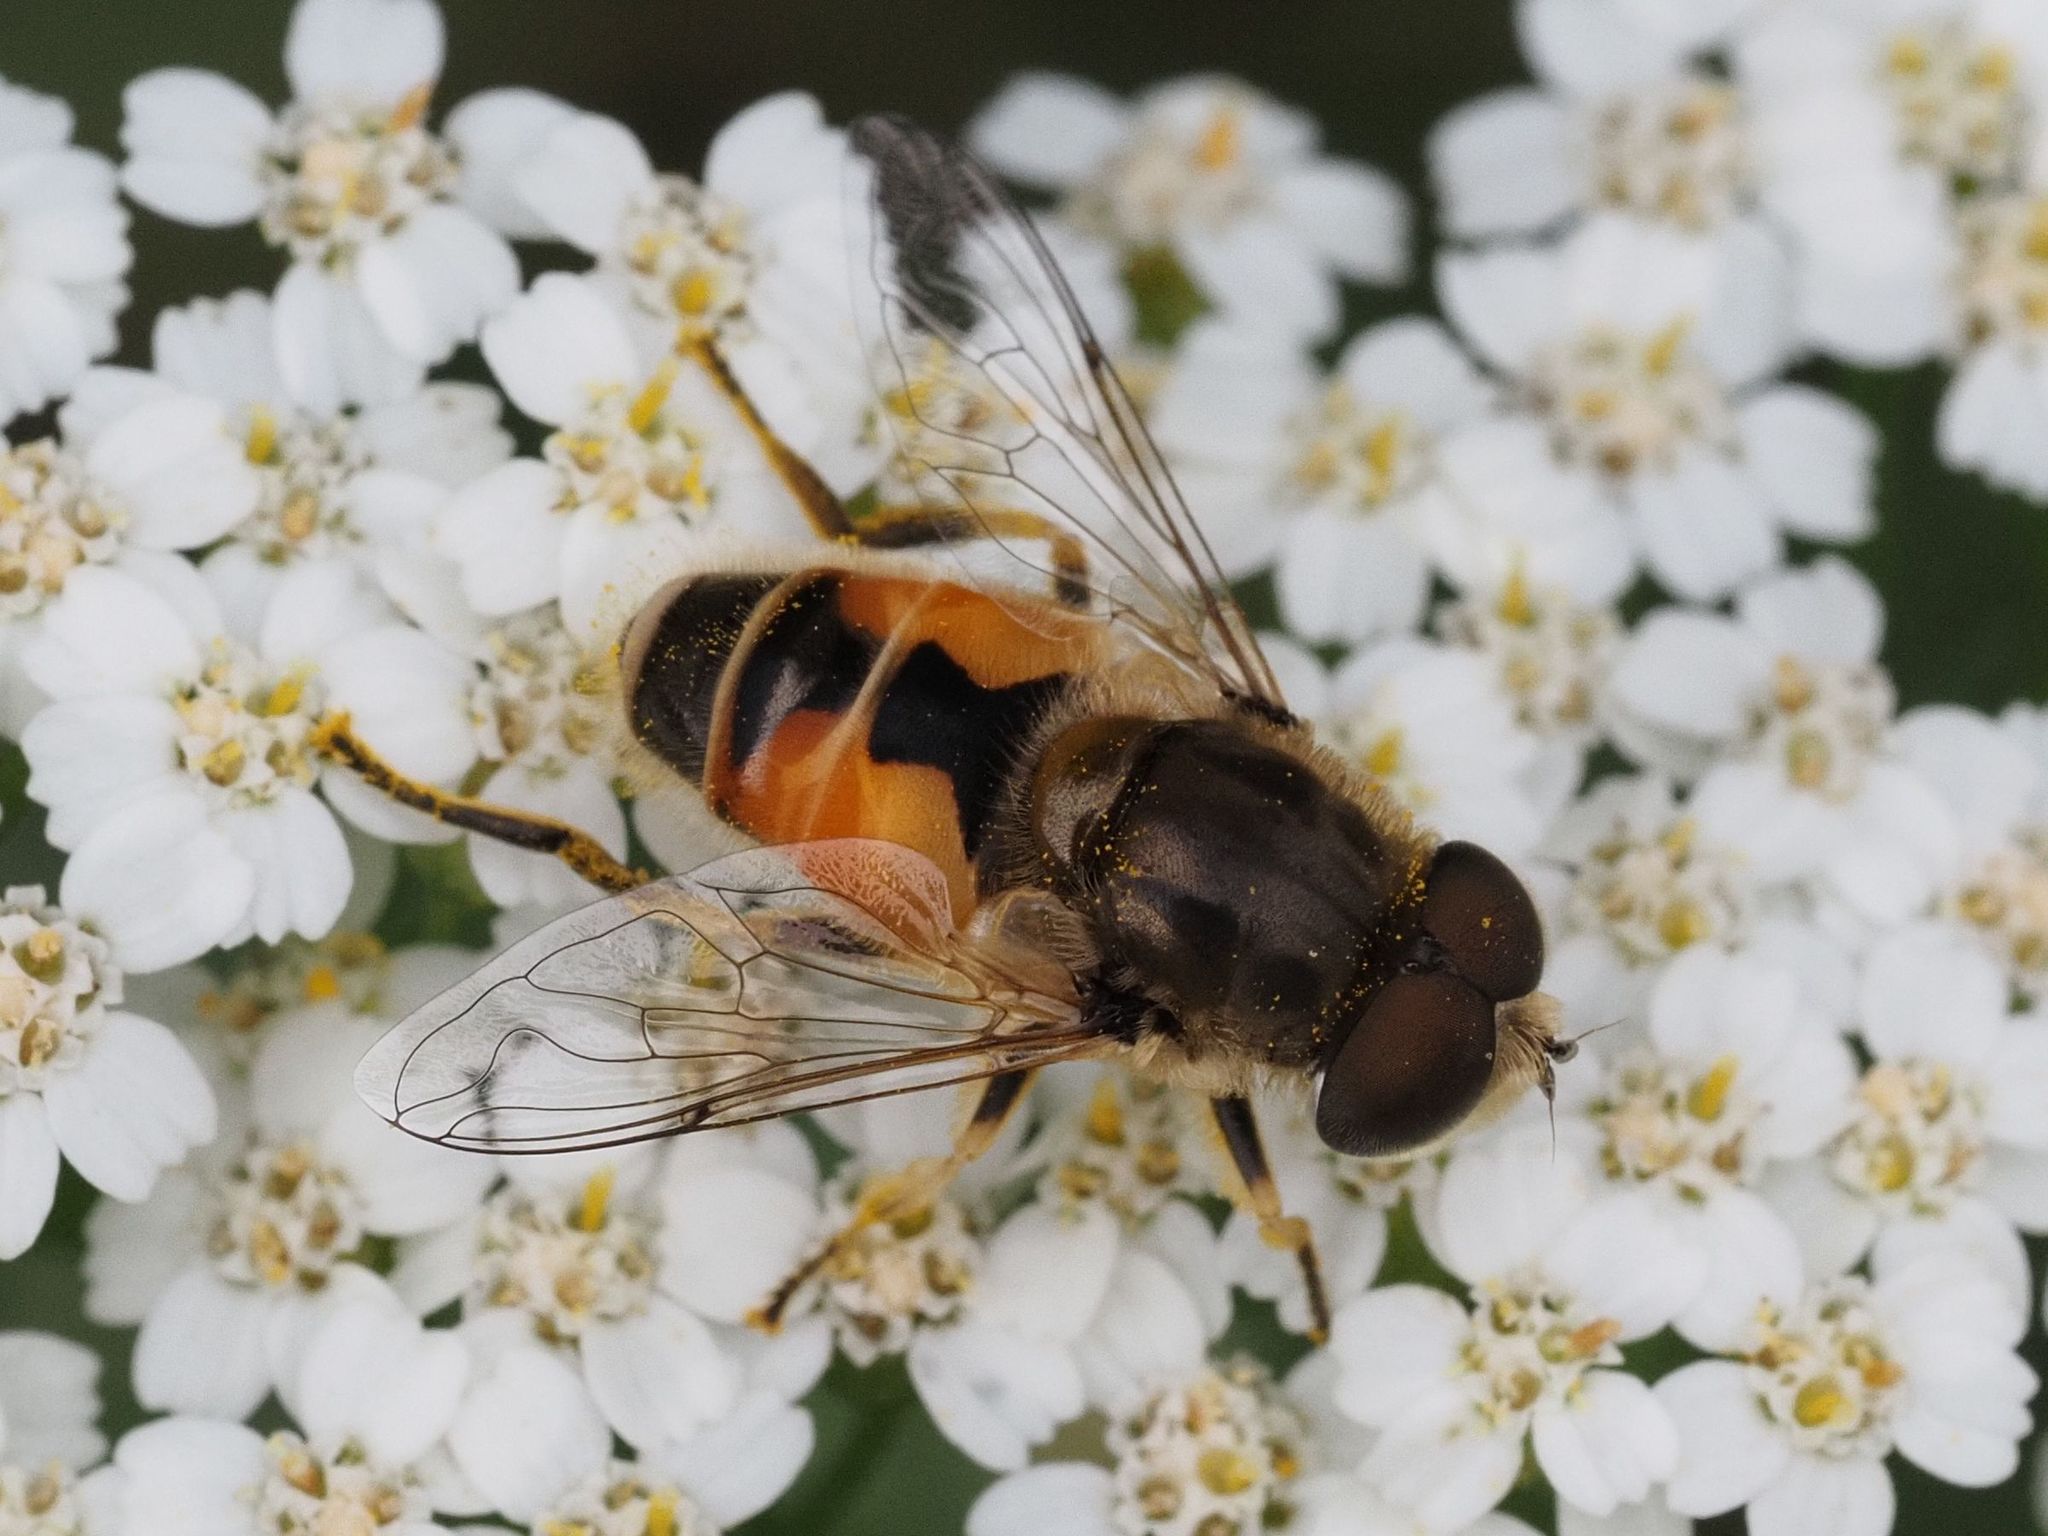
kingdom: Animalia
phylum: Arthropoda
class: Insecta
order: Diptera
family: Syrphidae
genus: Eristalis
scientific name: Eristalis arbustorum
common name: Hover fly
